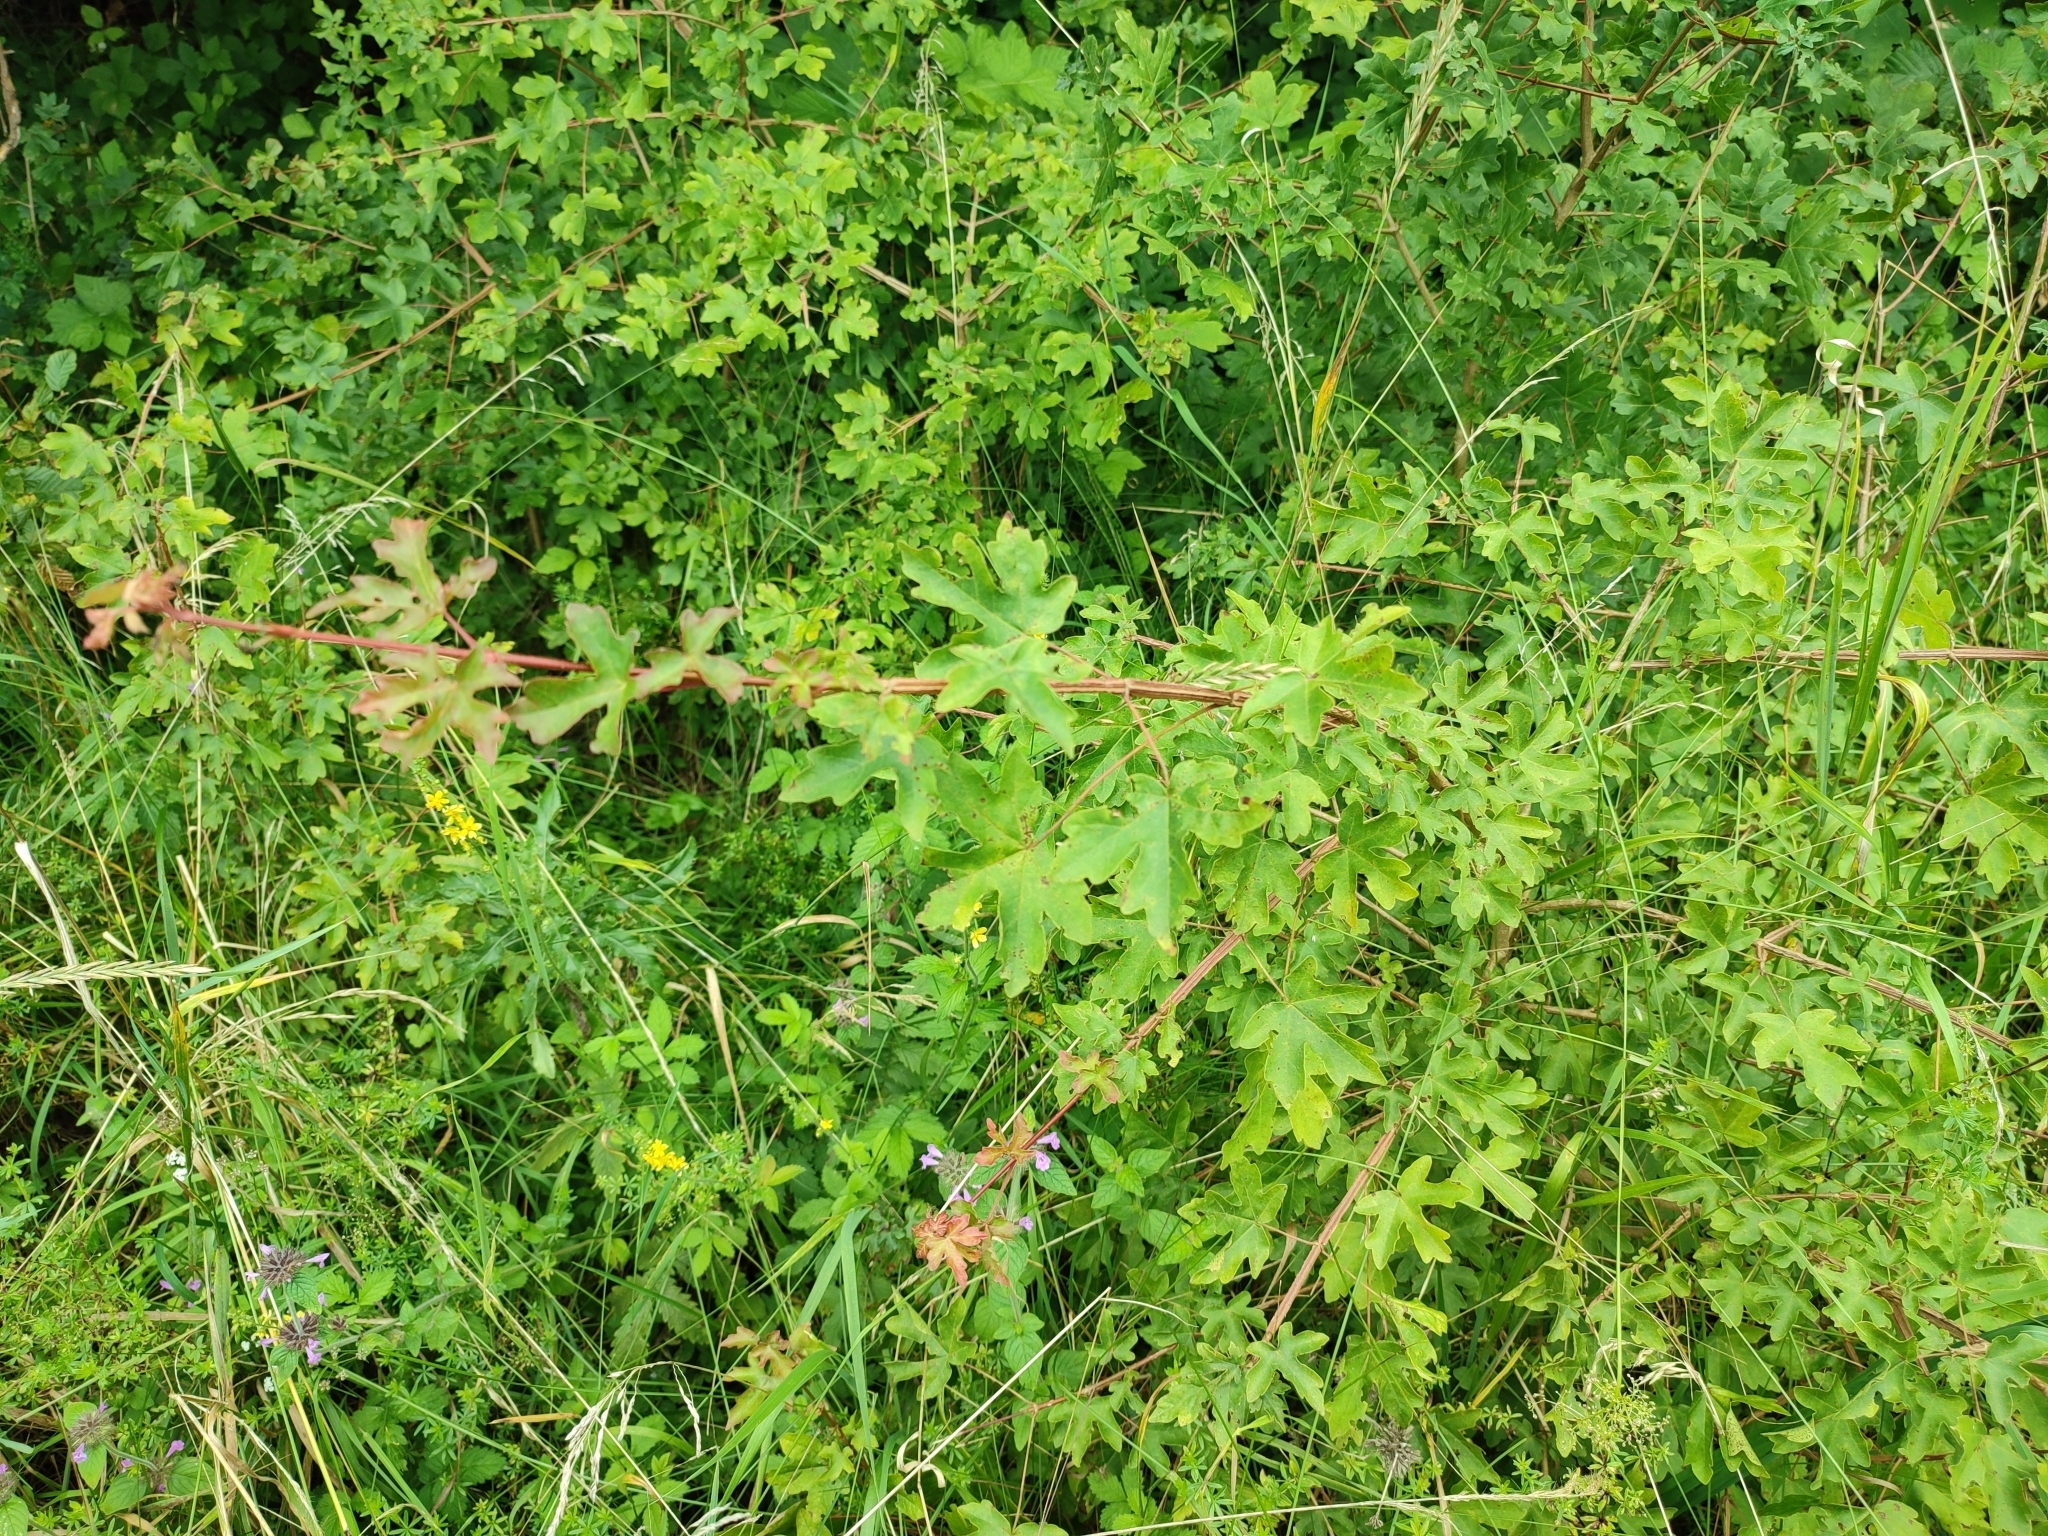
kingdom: Plantae
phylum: Tracheophyta
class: Magnoliopsida
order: Sapindales
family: Sapindaceae
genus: Acer
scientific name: Acer campestre
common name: Field maple
